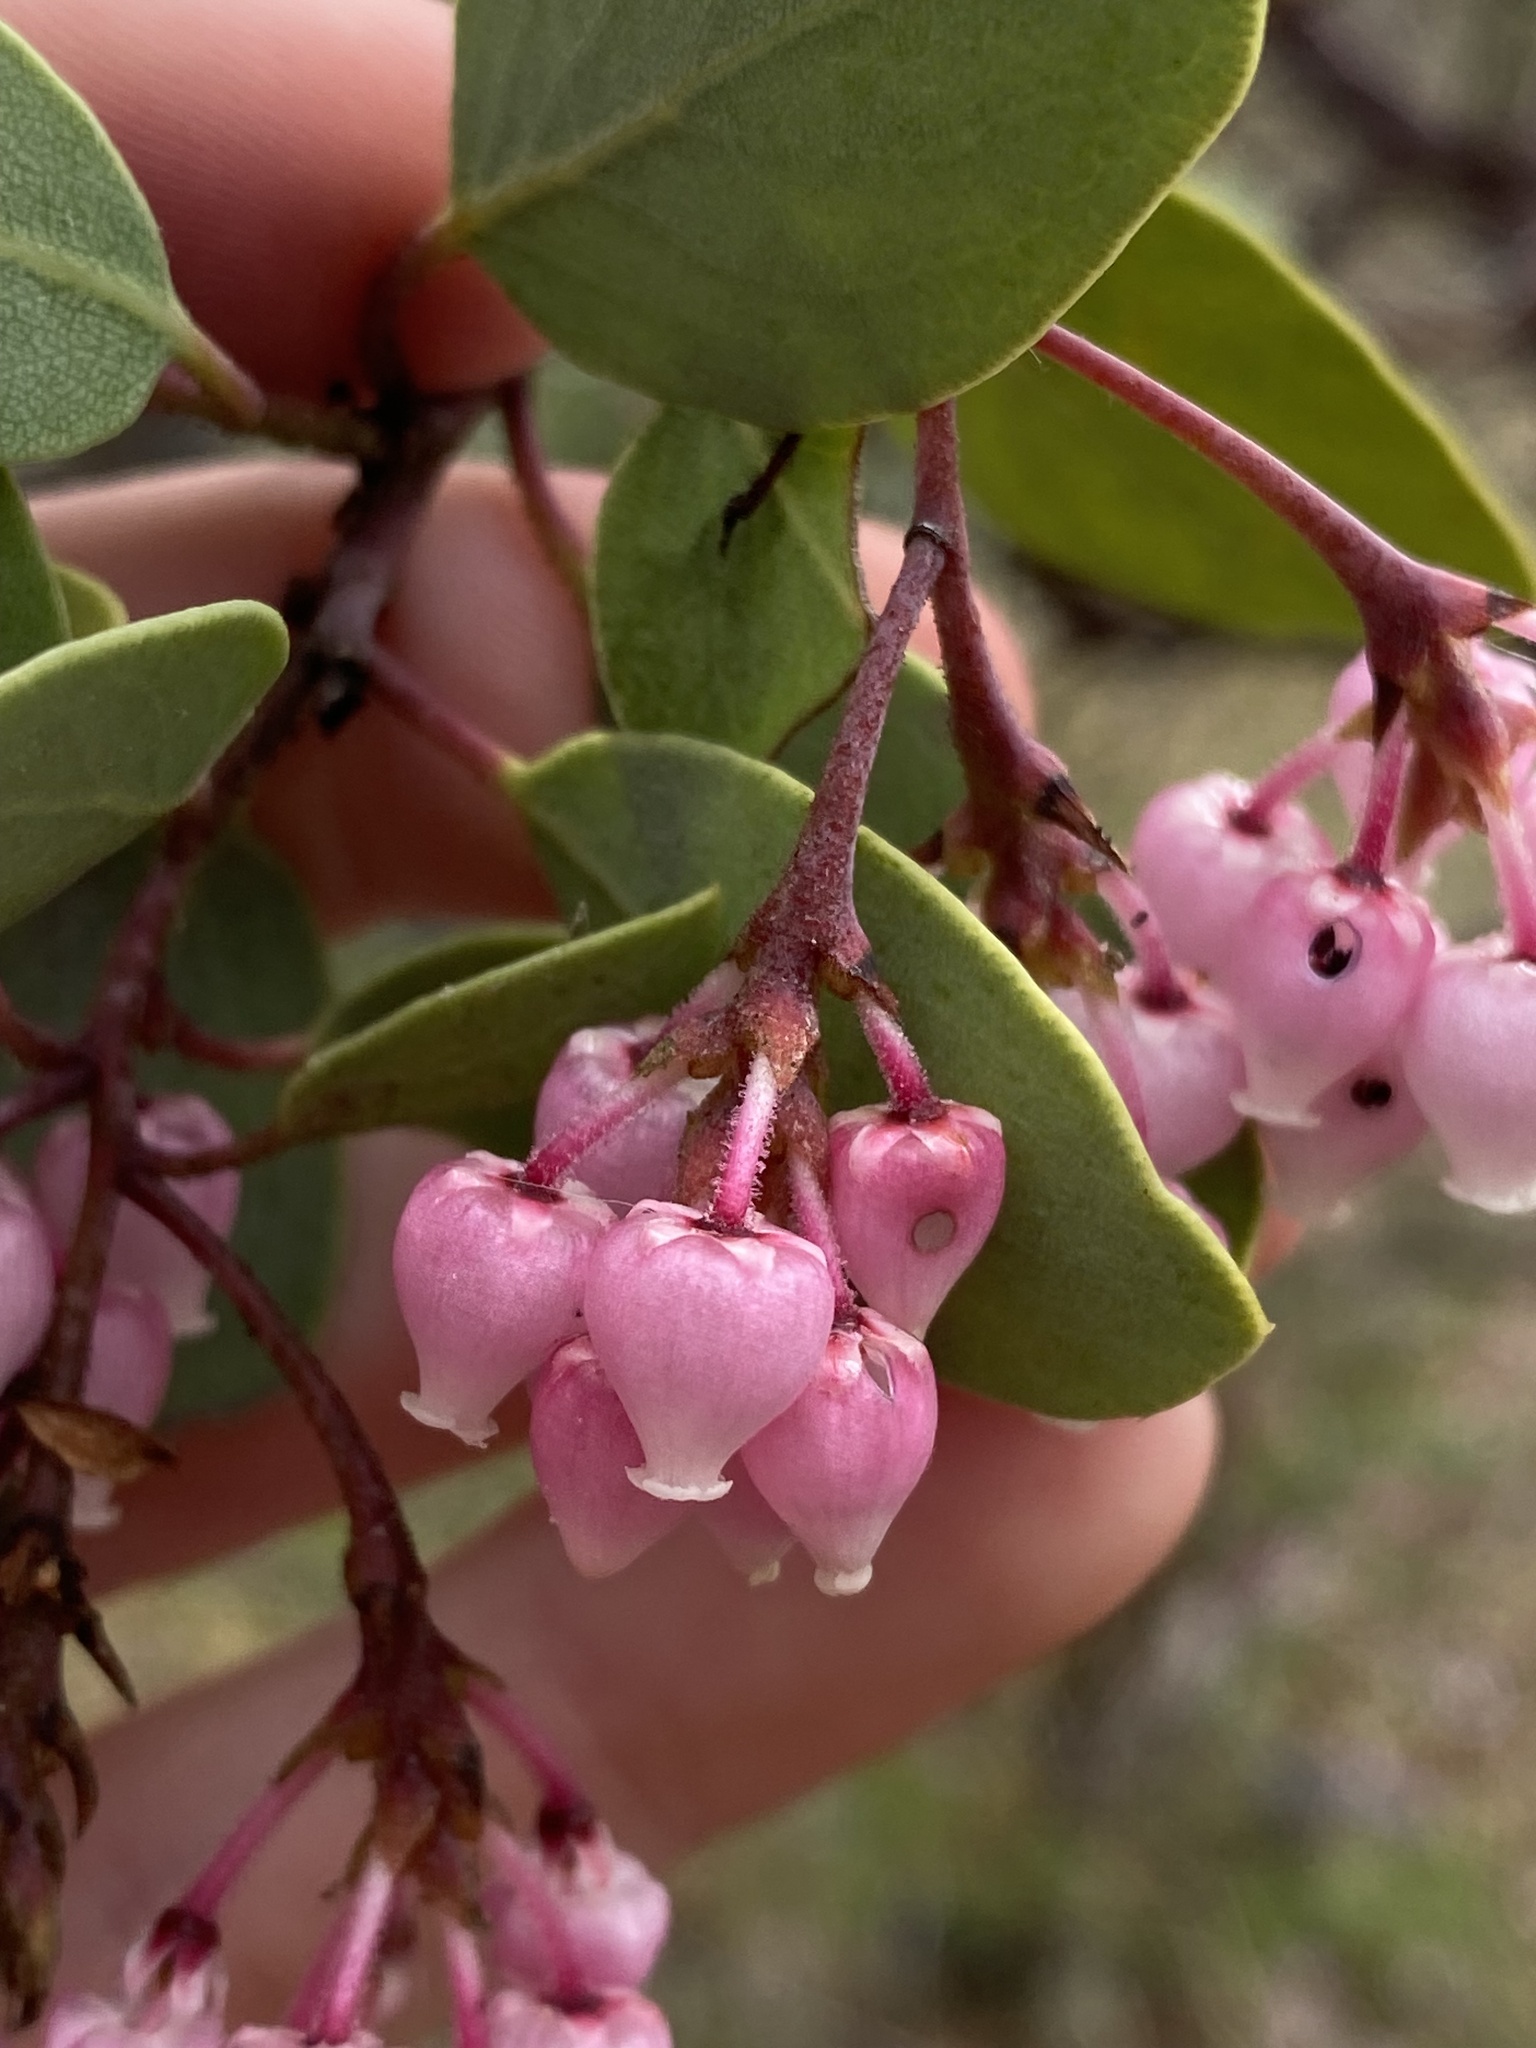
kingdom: Plantae
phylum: Tracheophyta
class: Magnoliopsida
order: Ericales
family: Ericaceae
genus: Arctostaphylos
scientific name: Arctostaphylos viscida
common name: White-leaf manzanita
